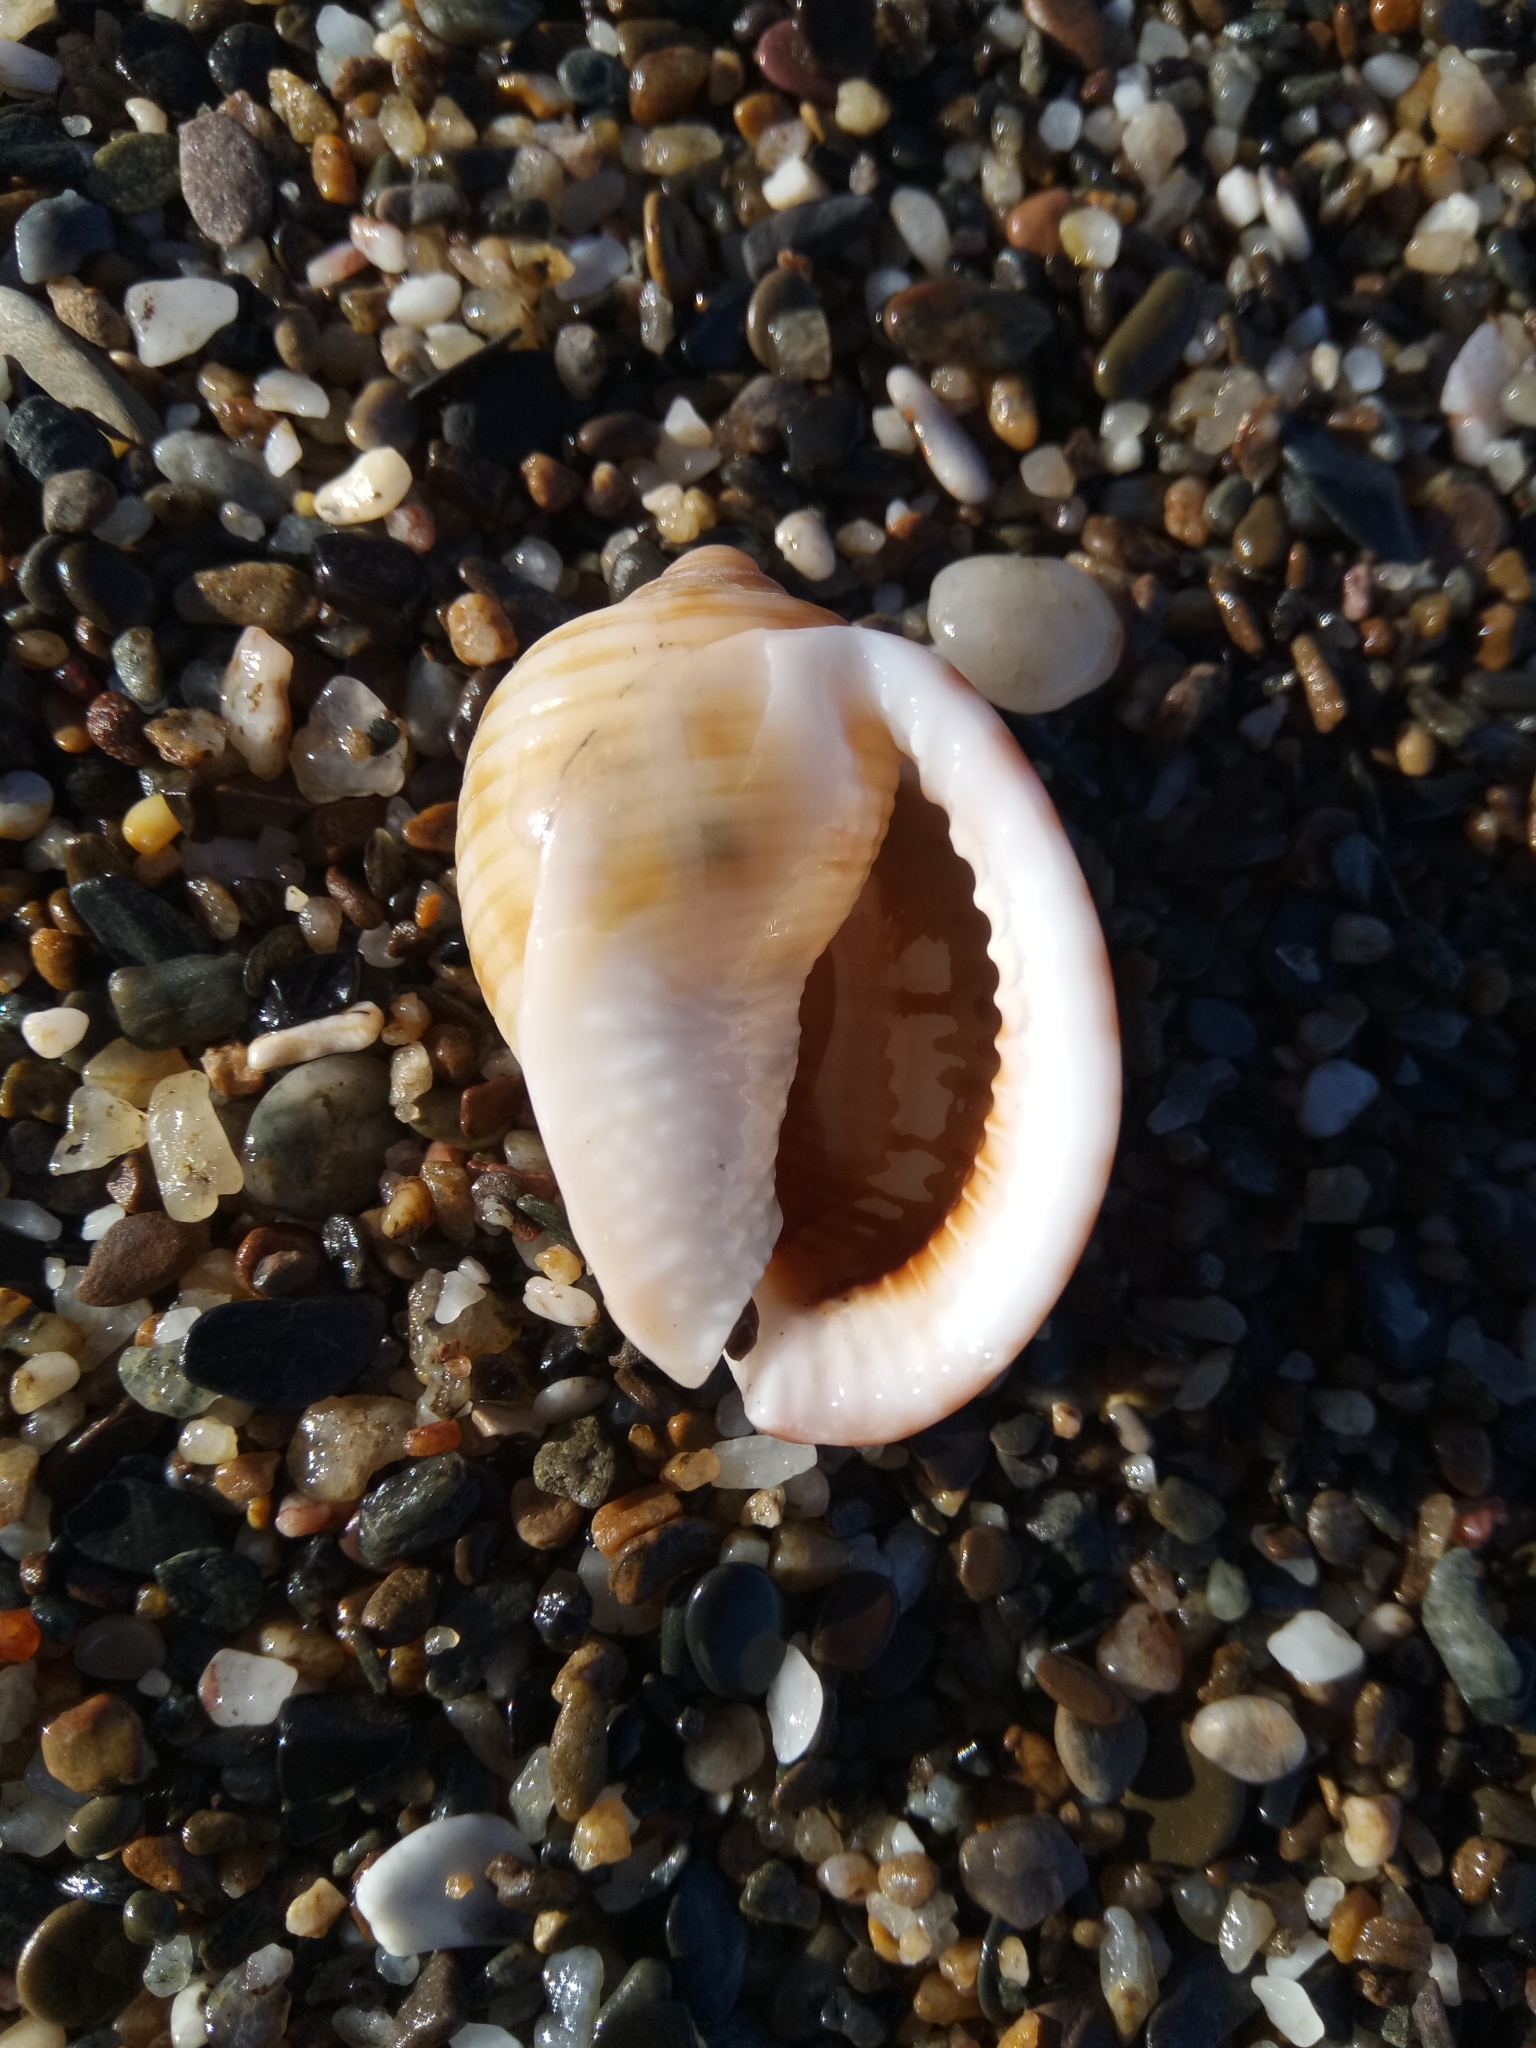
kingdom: Animalia
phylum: Mollusca
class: Gastropoda
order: Littorinimorpha
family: Cassidae
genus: Semicassis
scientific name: Semicassis undulata
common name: Mediterranean bonnet
